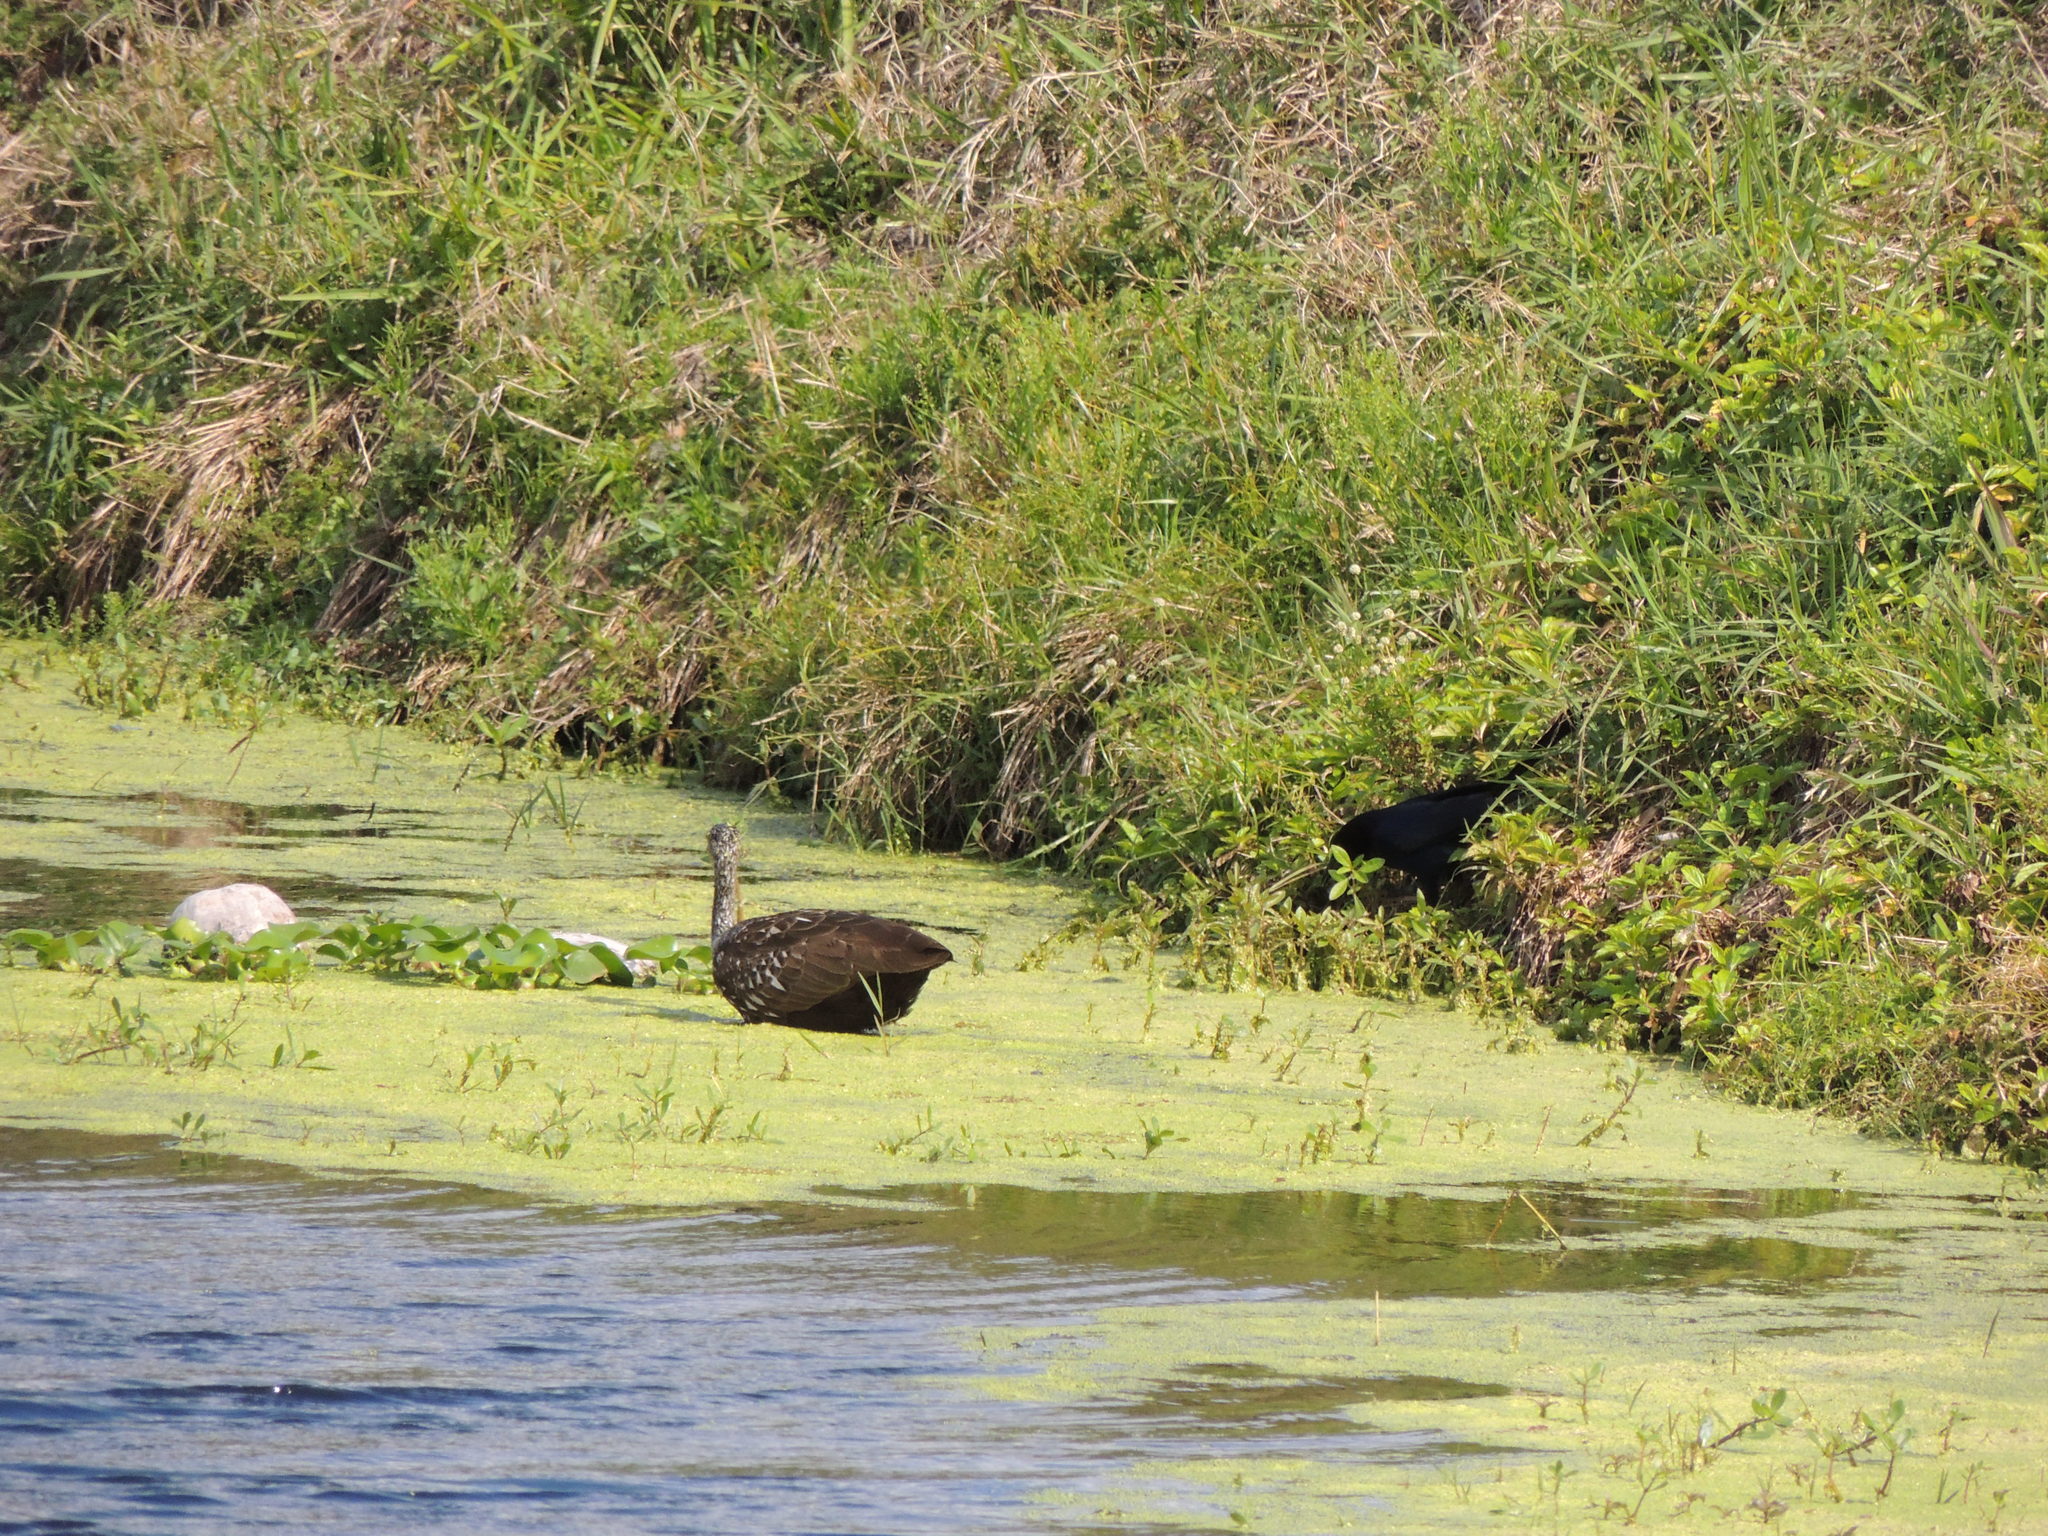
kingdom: Animalia
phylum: Chordata
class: Aves
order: Gruiformes
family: Aramidae
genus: Aramus
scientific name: Aramus guarauna
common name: Limpkin
